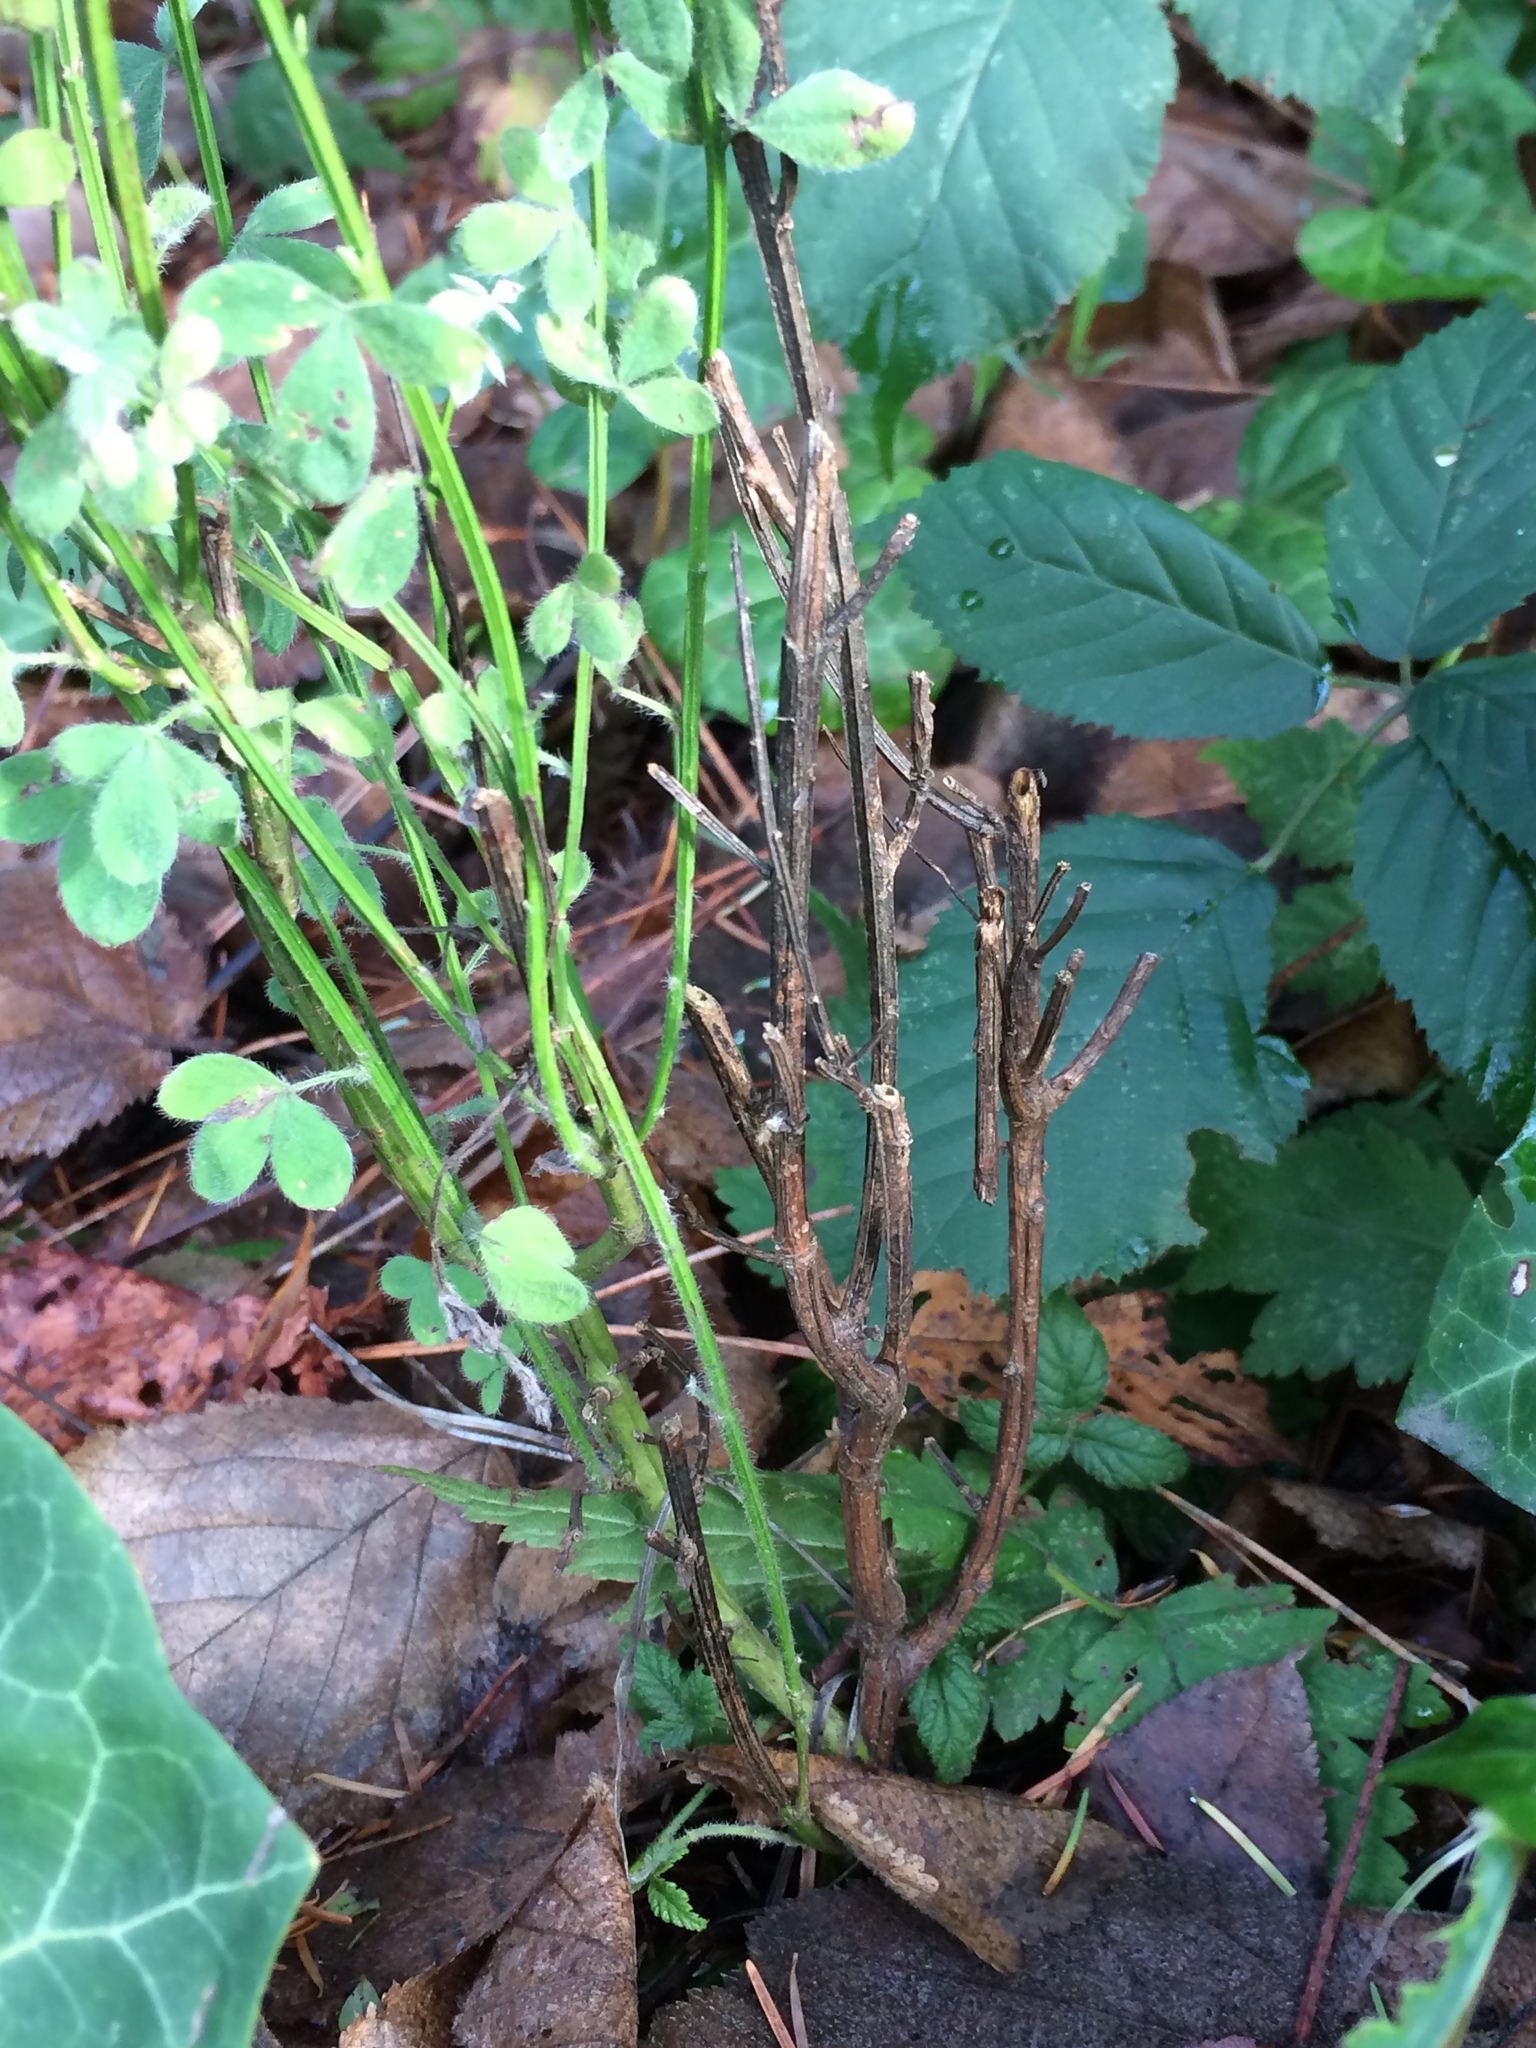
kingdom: Plantae
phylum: Tracheophyta
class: Magnoliopsida
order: Fabales
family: Fabaceae
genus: Genista
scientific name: Genista monspessulana
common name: Montpellier broom
